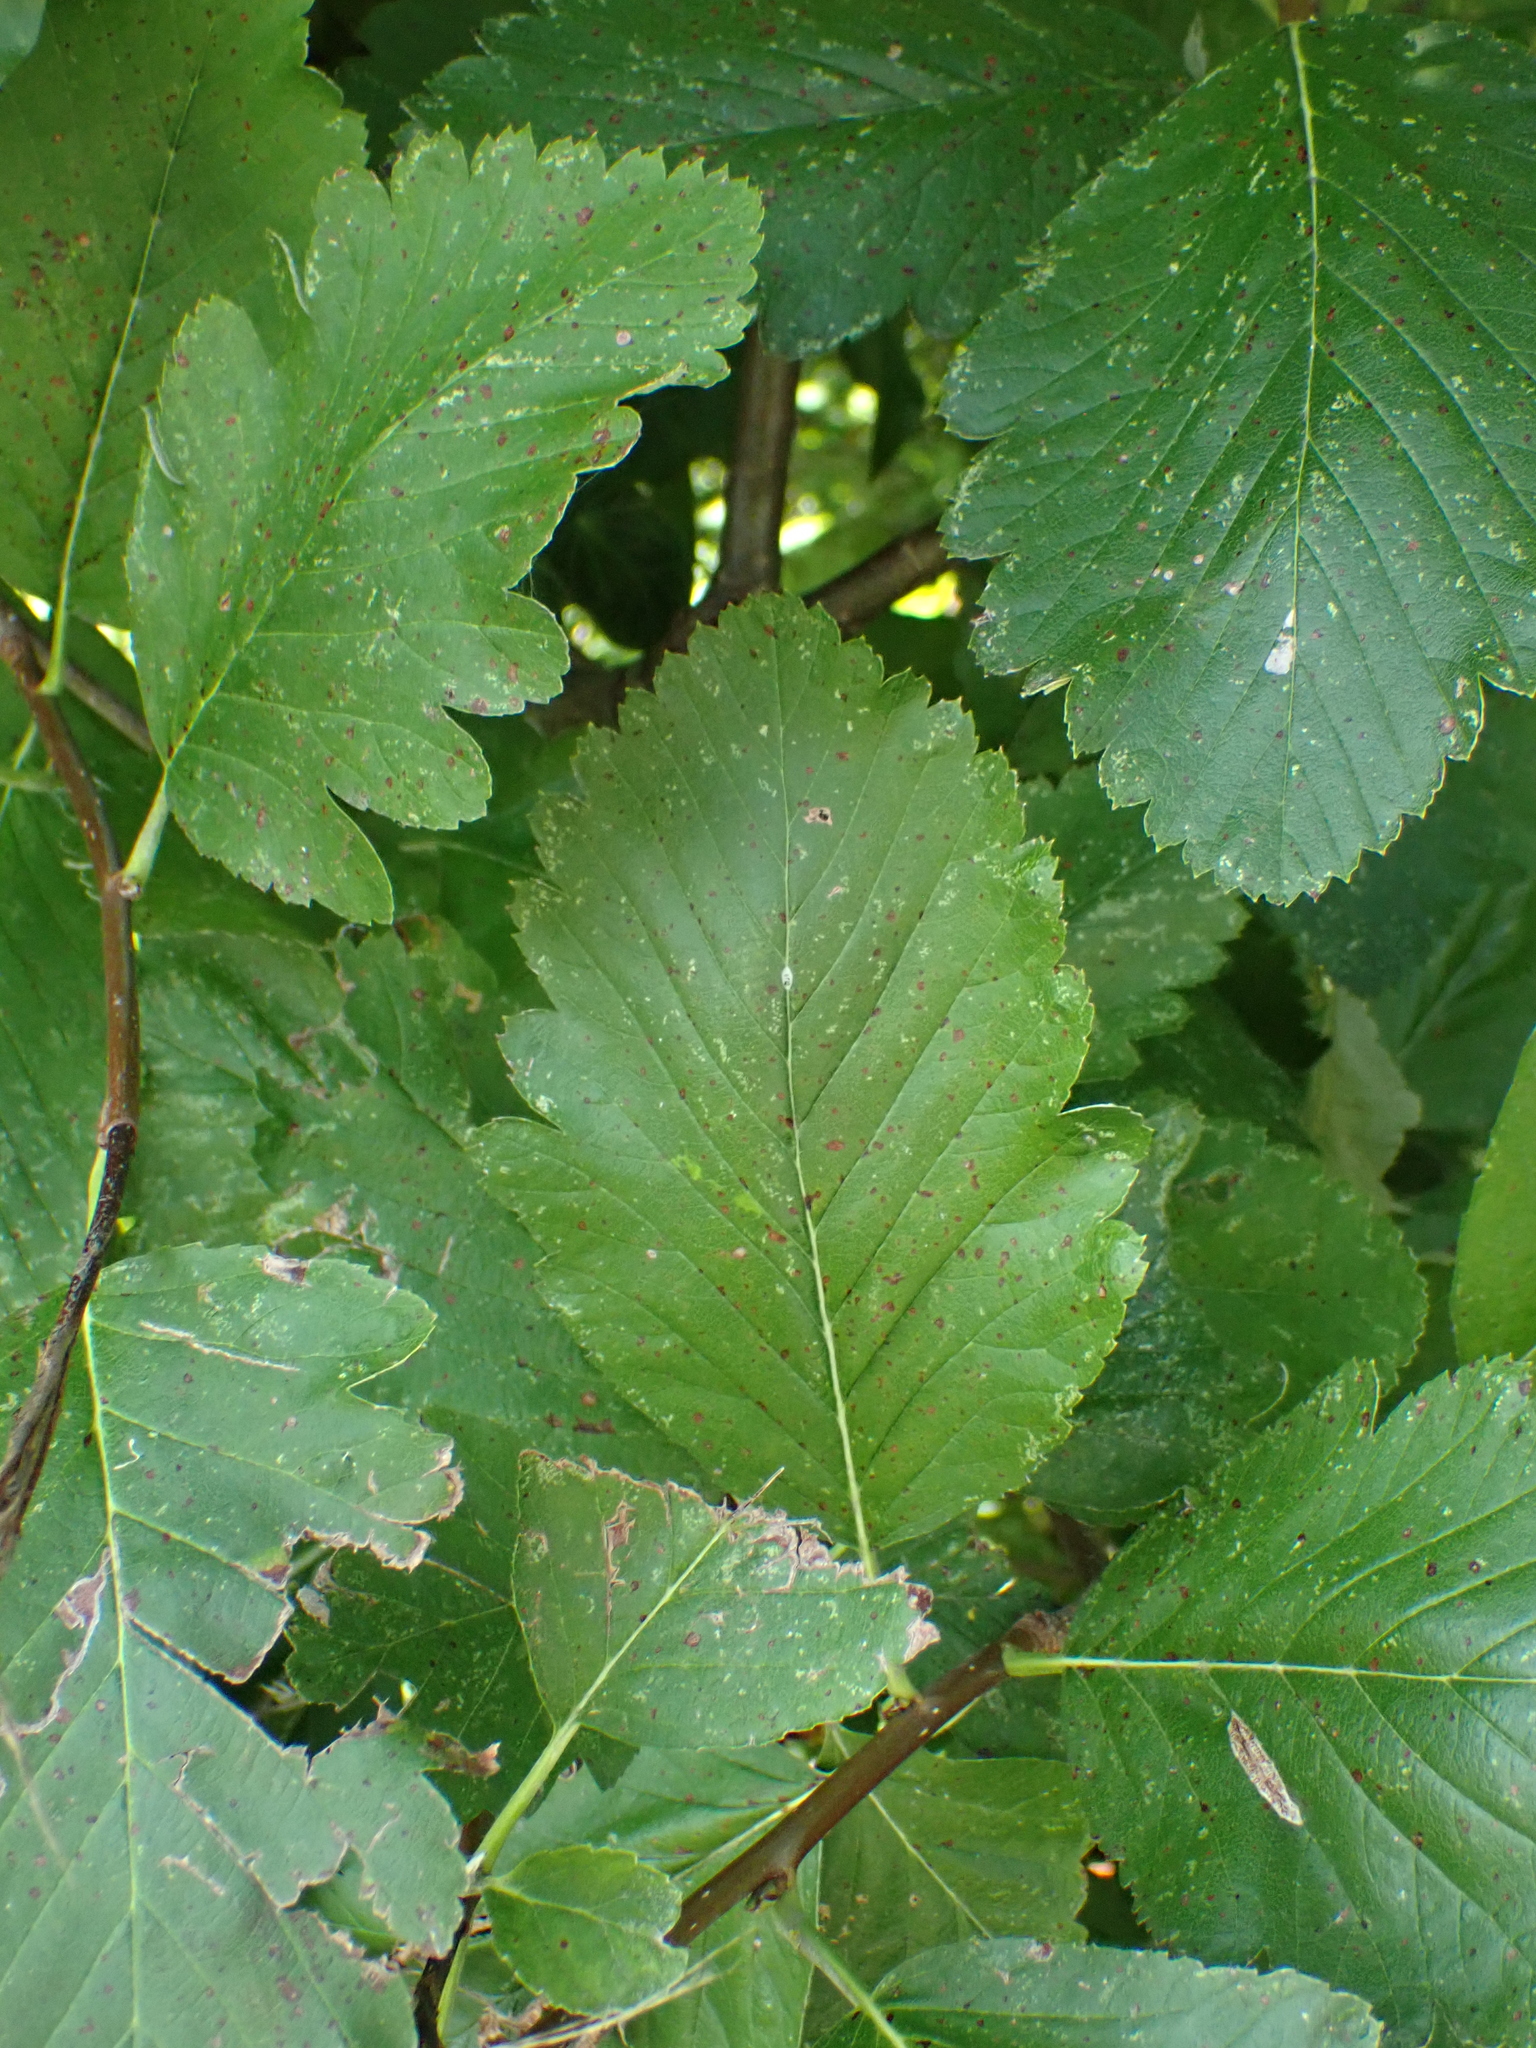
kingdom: Plantae
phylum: Tracheophyta
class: Magnoliopsida
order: Rosales
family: Rosaceae
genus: Hedlundia
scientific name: Hedlundia mougeotii
